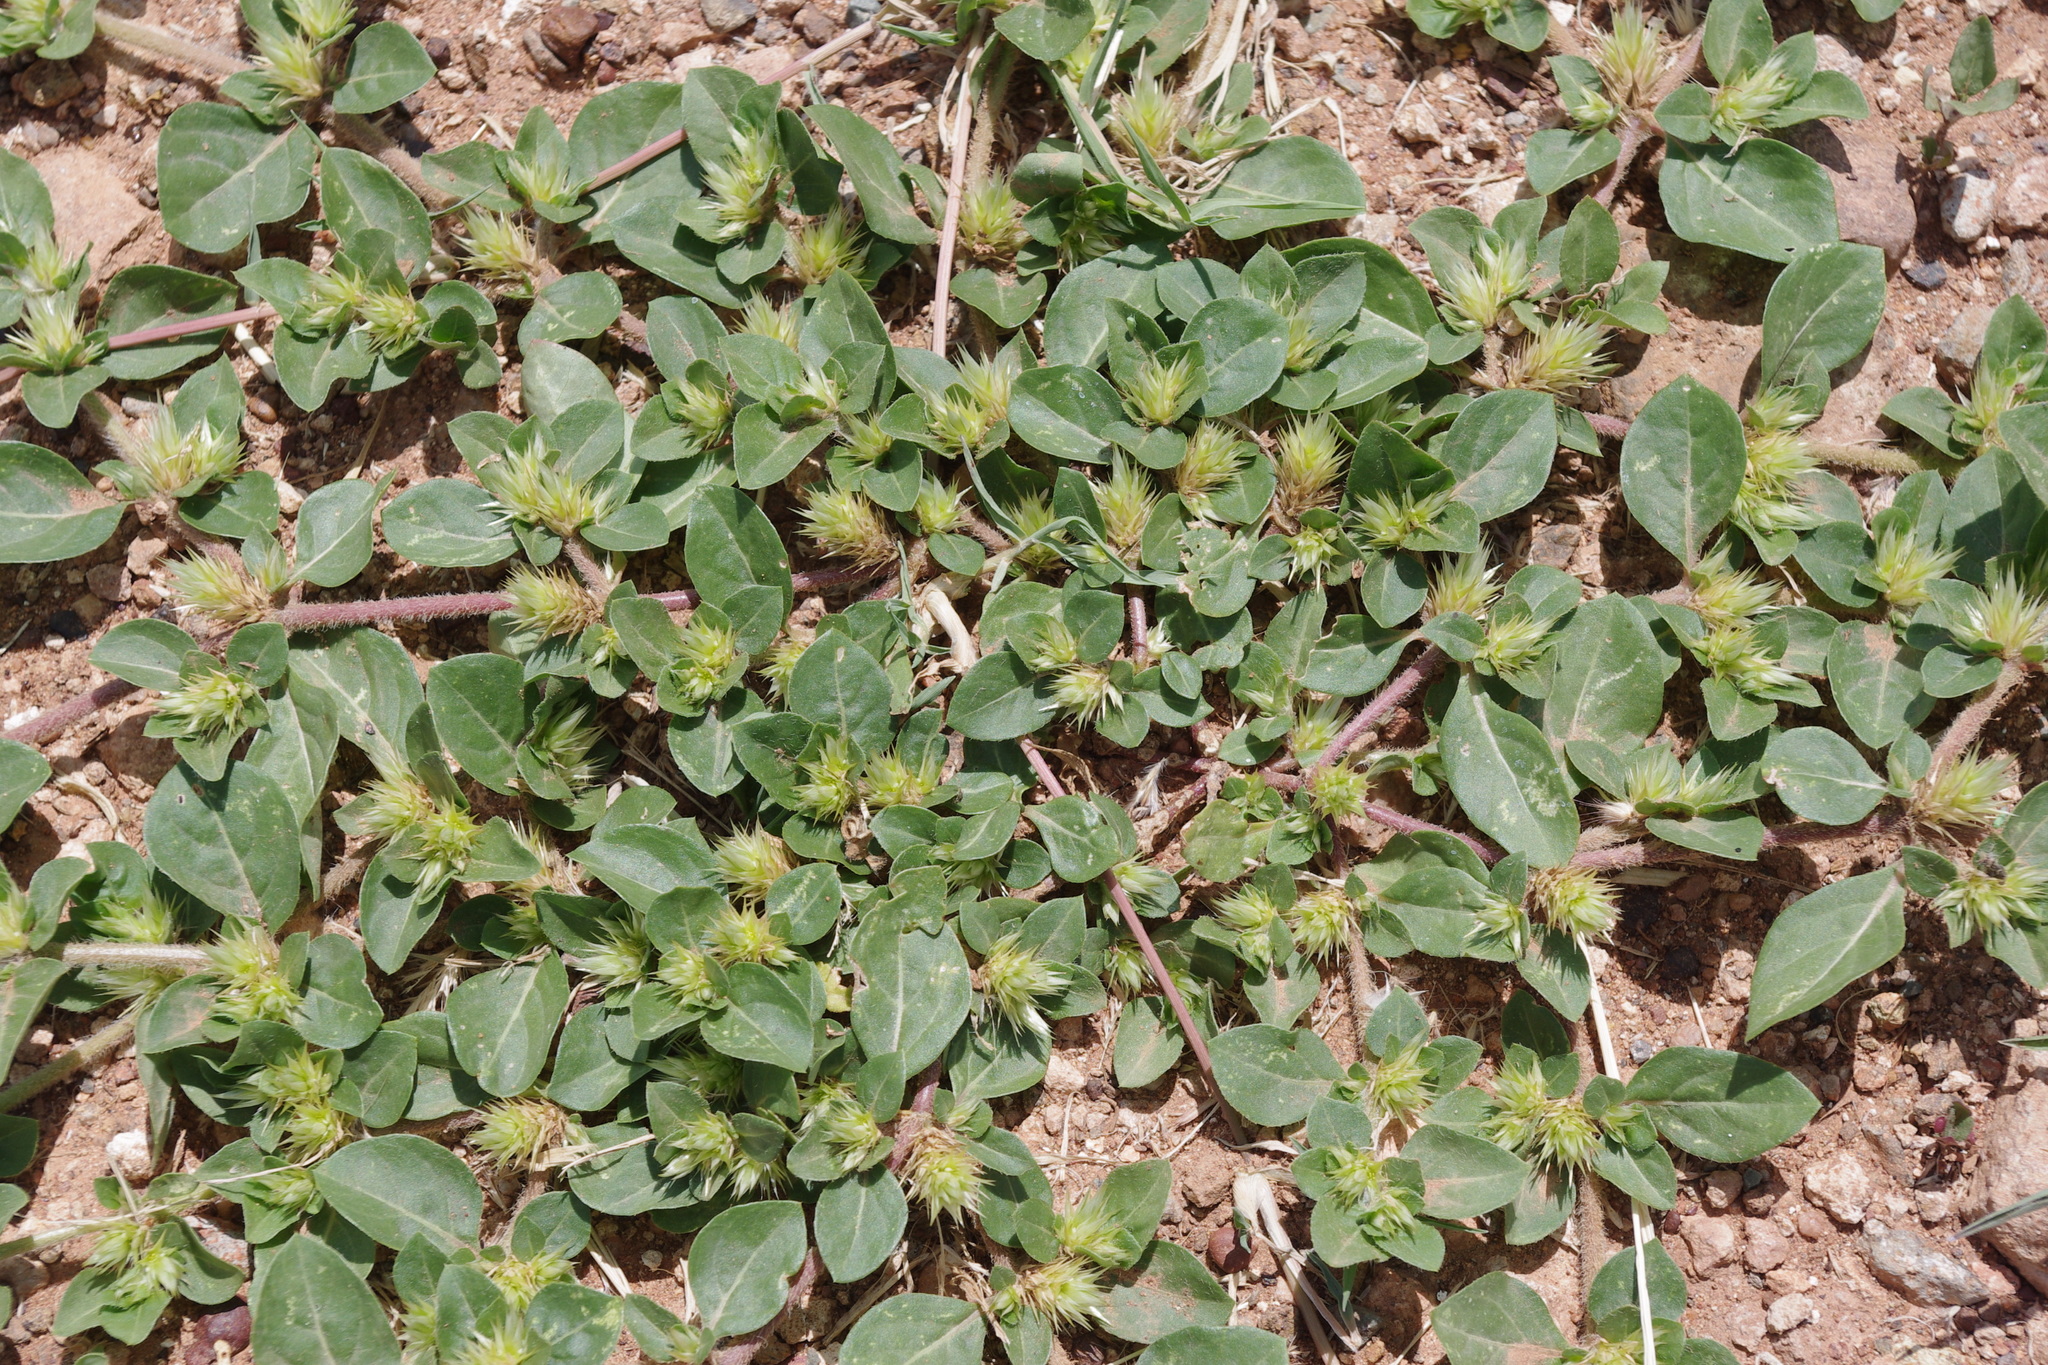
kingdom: Plantae
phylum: Tracheophyta
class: Magnoliopsida
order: Caryophyllales
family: Amaranthaceae
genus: Alternanthera
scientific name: Alternanthera pungens
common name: Khakiweed
